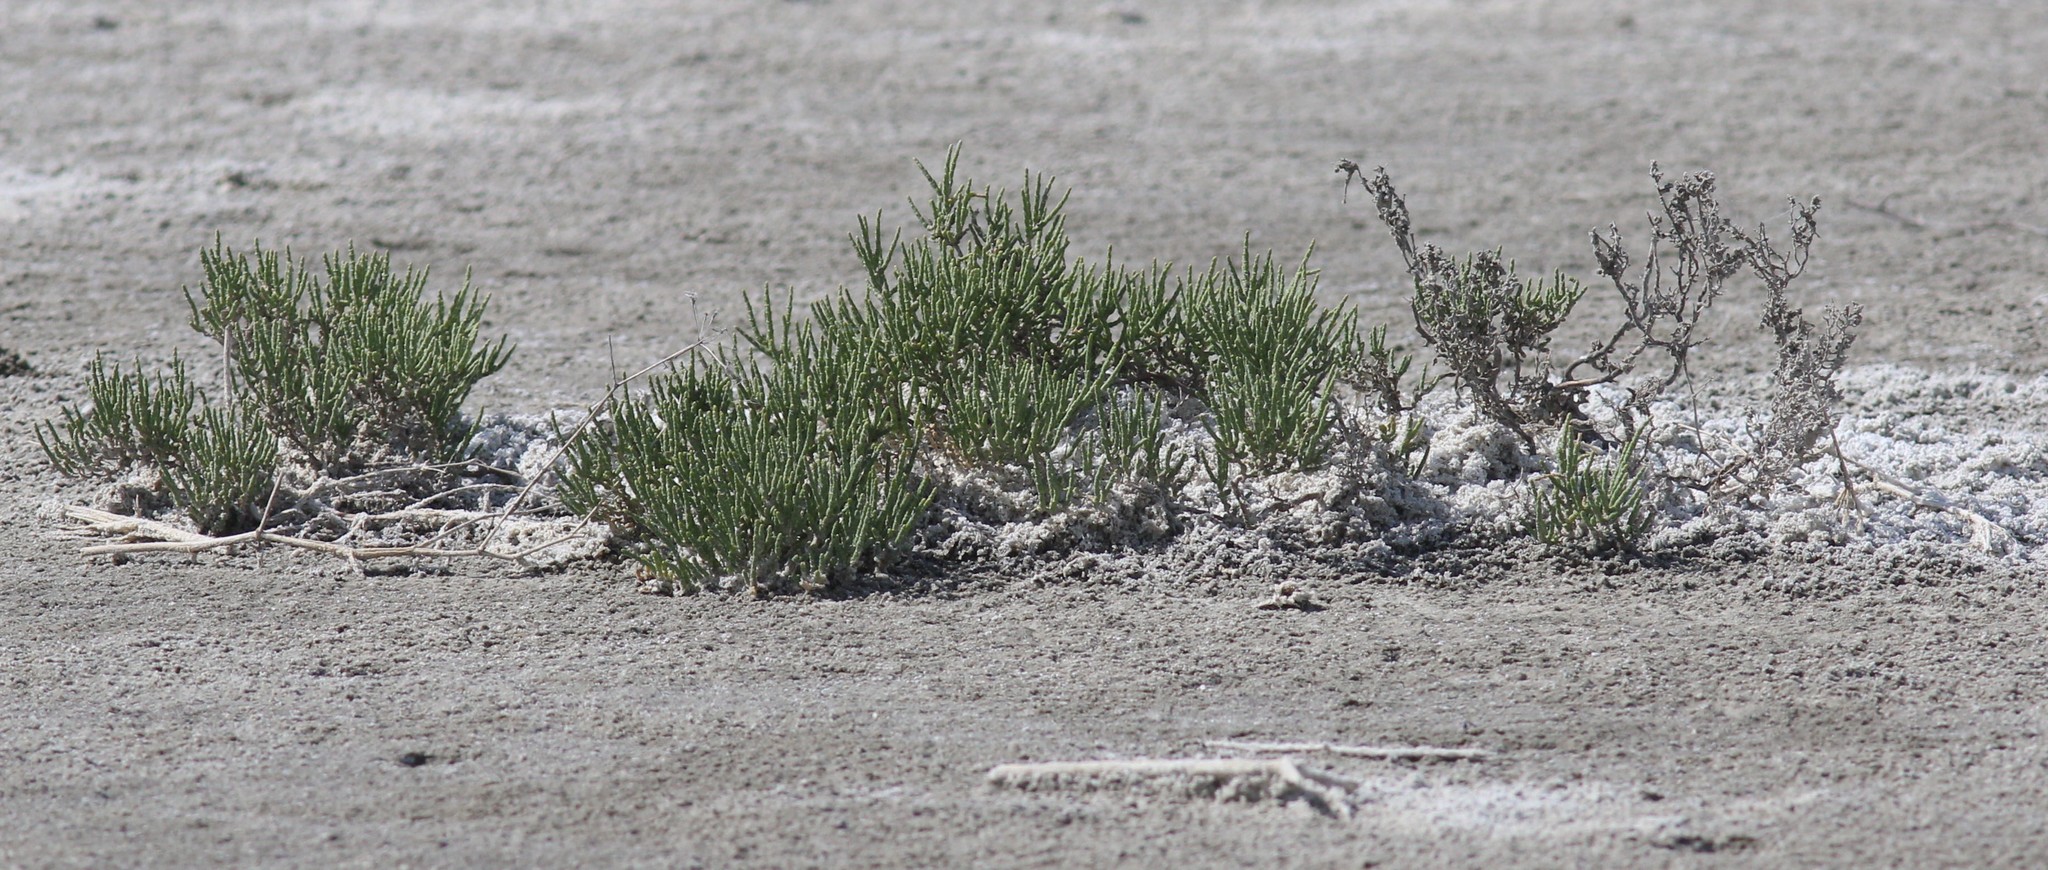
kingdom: Plantae
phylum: Tracheophyta
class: Magnoliopsida
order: Caryophyllales
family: Amaranthaceae
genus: Halocnemum
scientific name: Halocnemum strobilaceum
